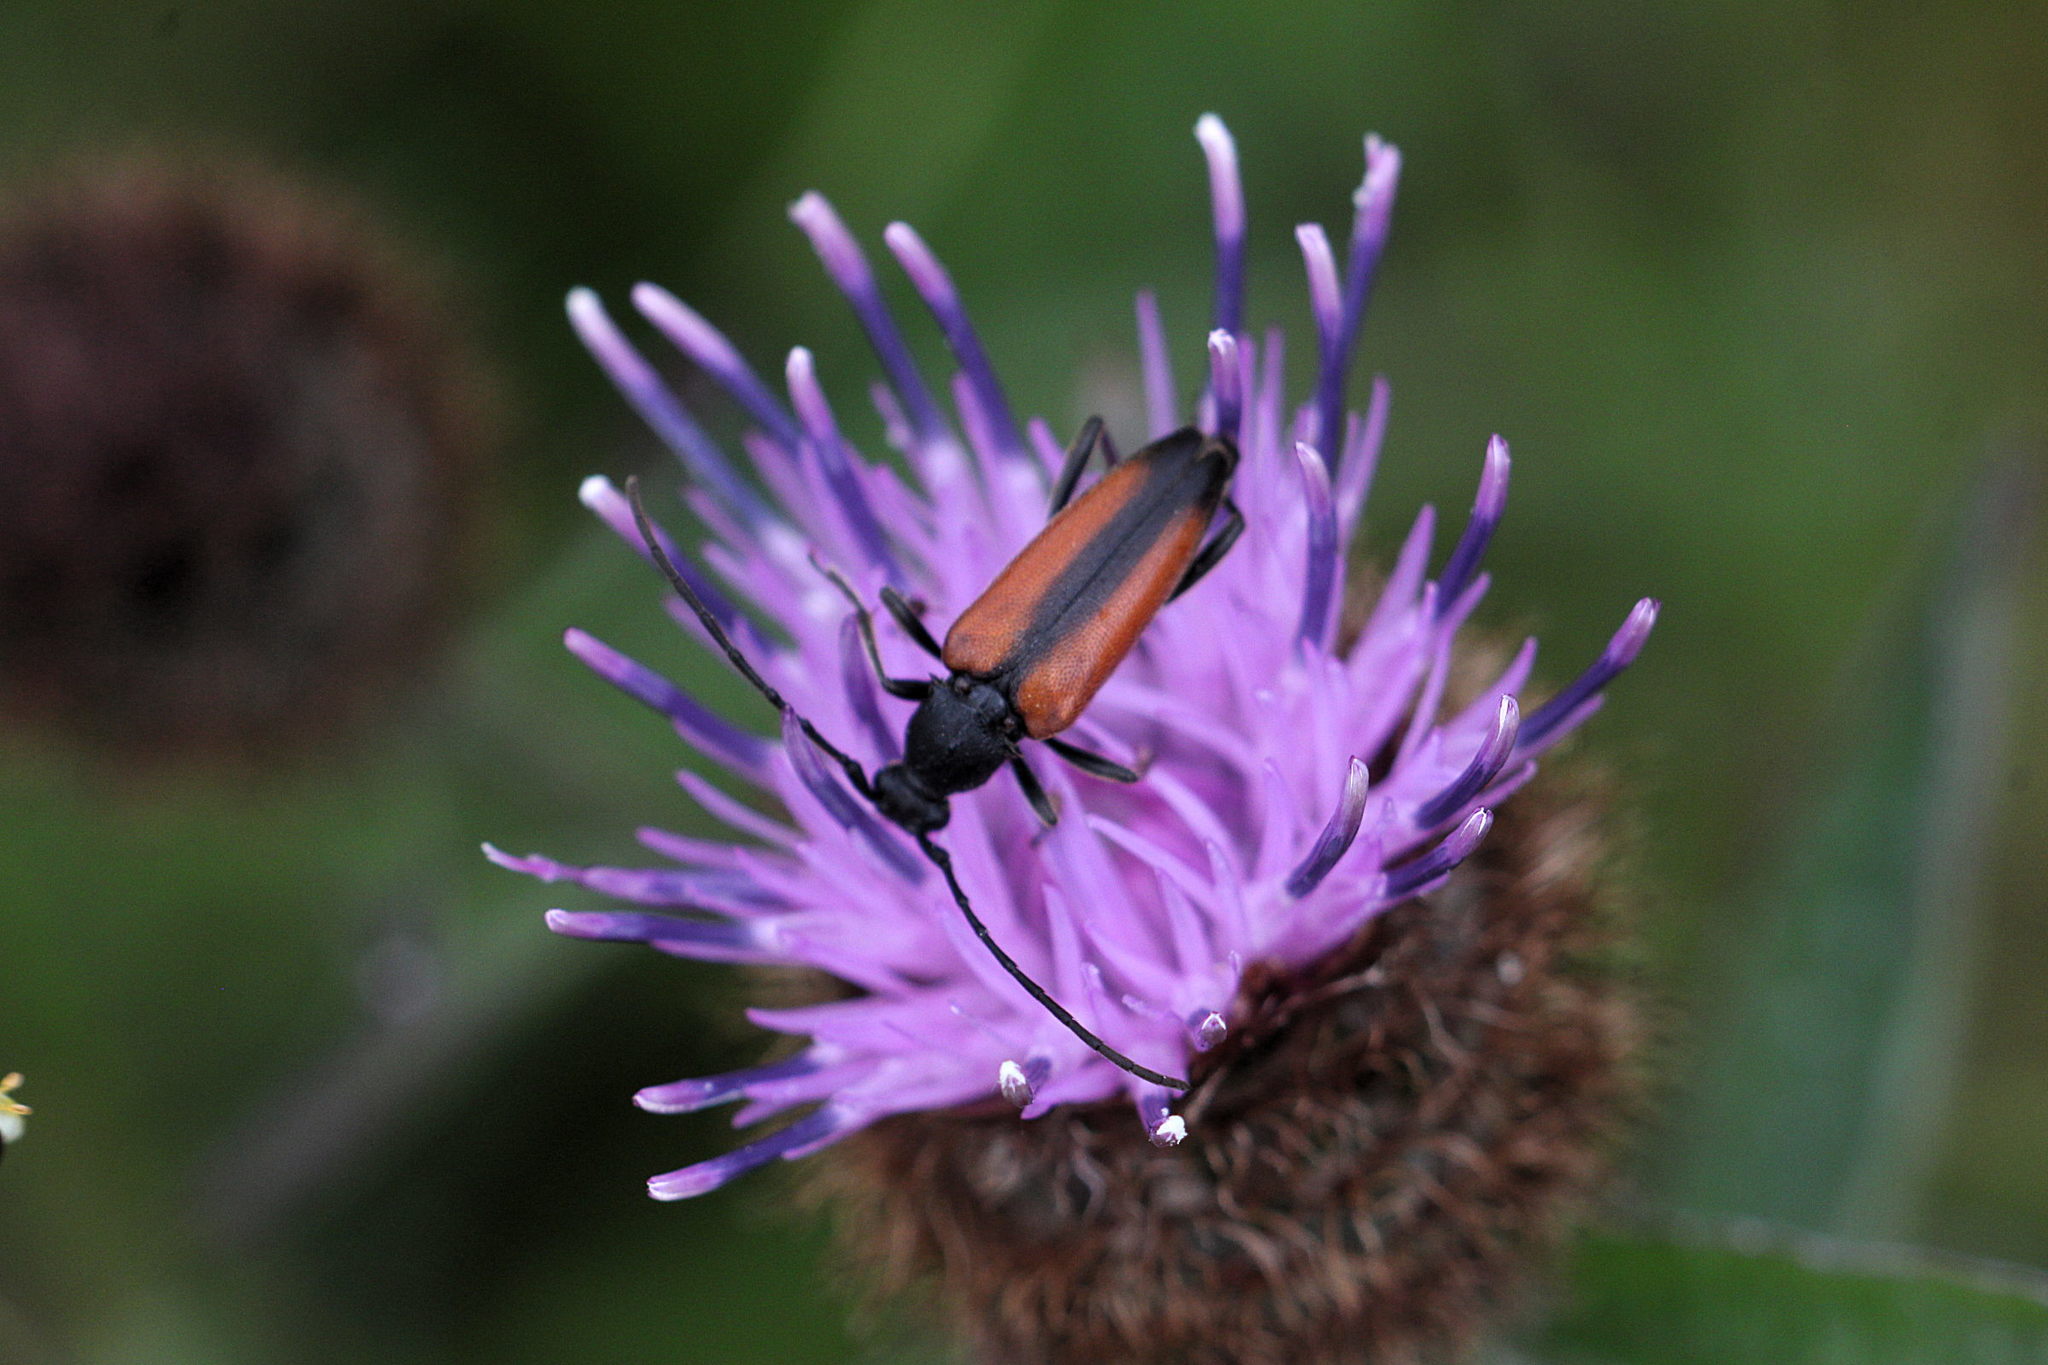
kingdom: Animalia
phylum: Arthropoda
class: Insecta
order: Coleoptera
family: Cerambycidae
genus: Stenurella
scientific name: Stenurella melanura
